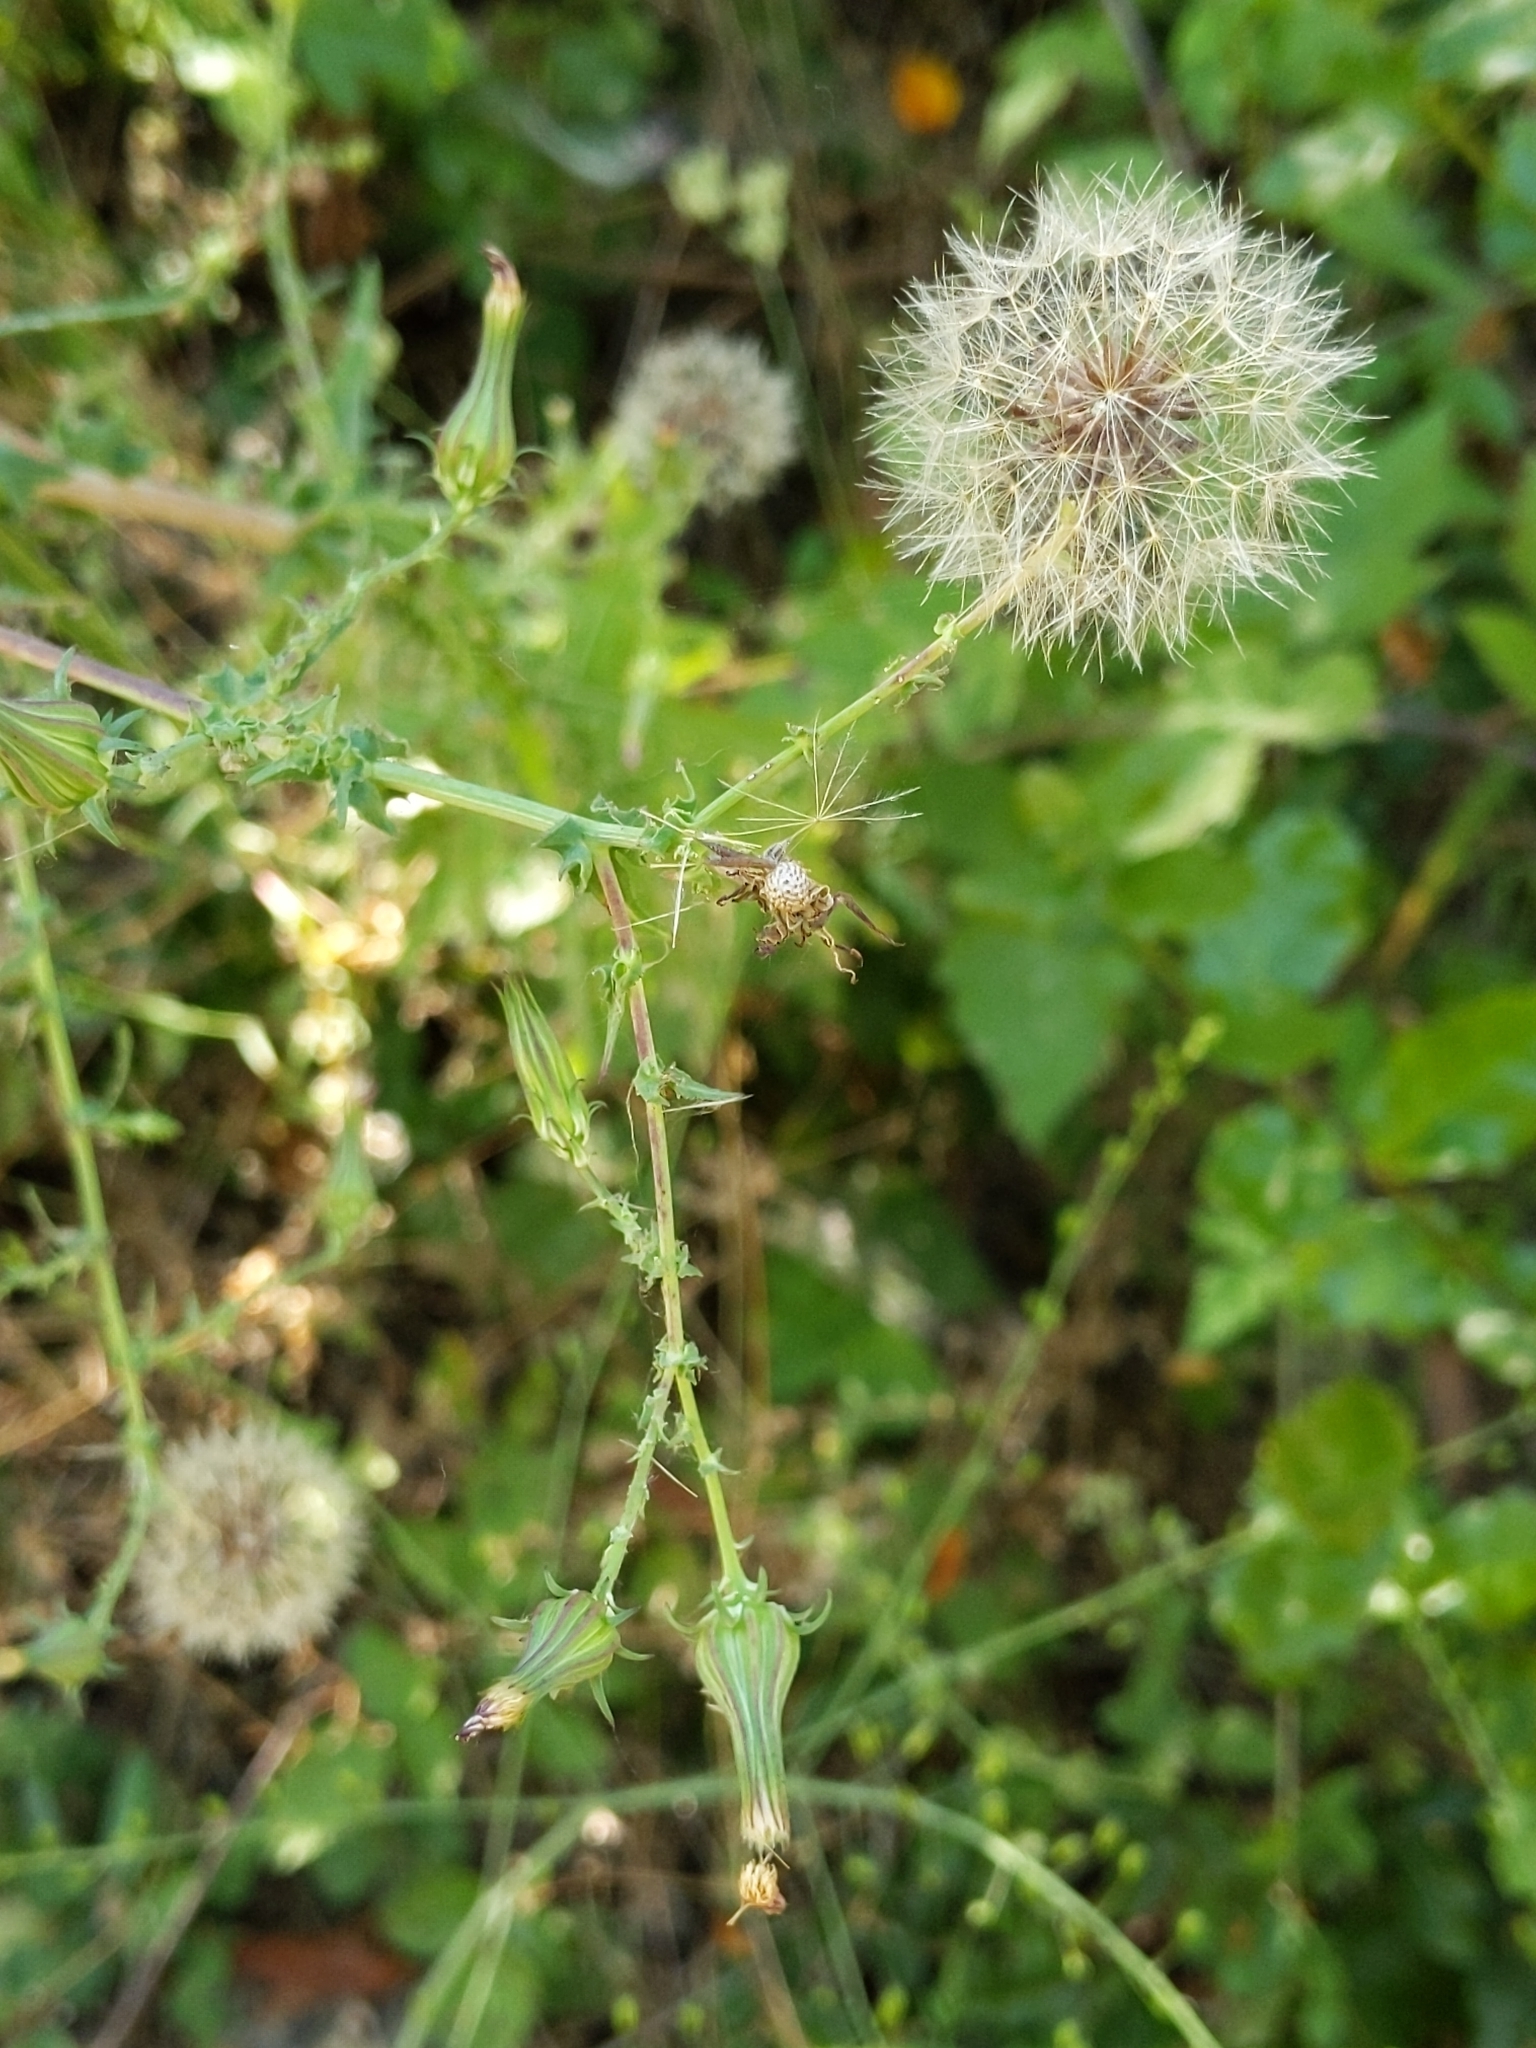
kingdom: Plantae
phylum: Tracheophyta
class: Magnoliopsida
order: Asterales
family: Asteraceae
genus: Rafinesquia
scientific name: Rafinesquia californica
